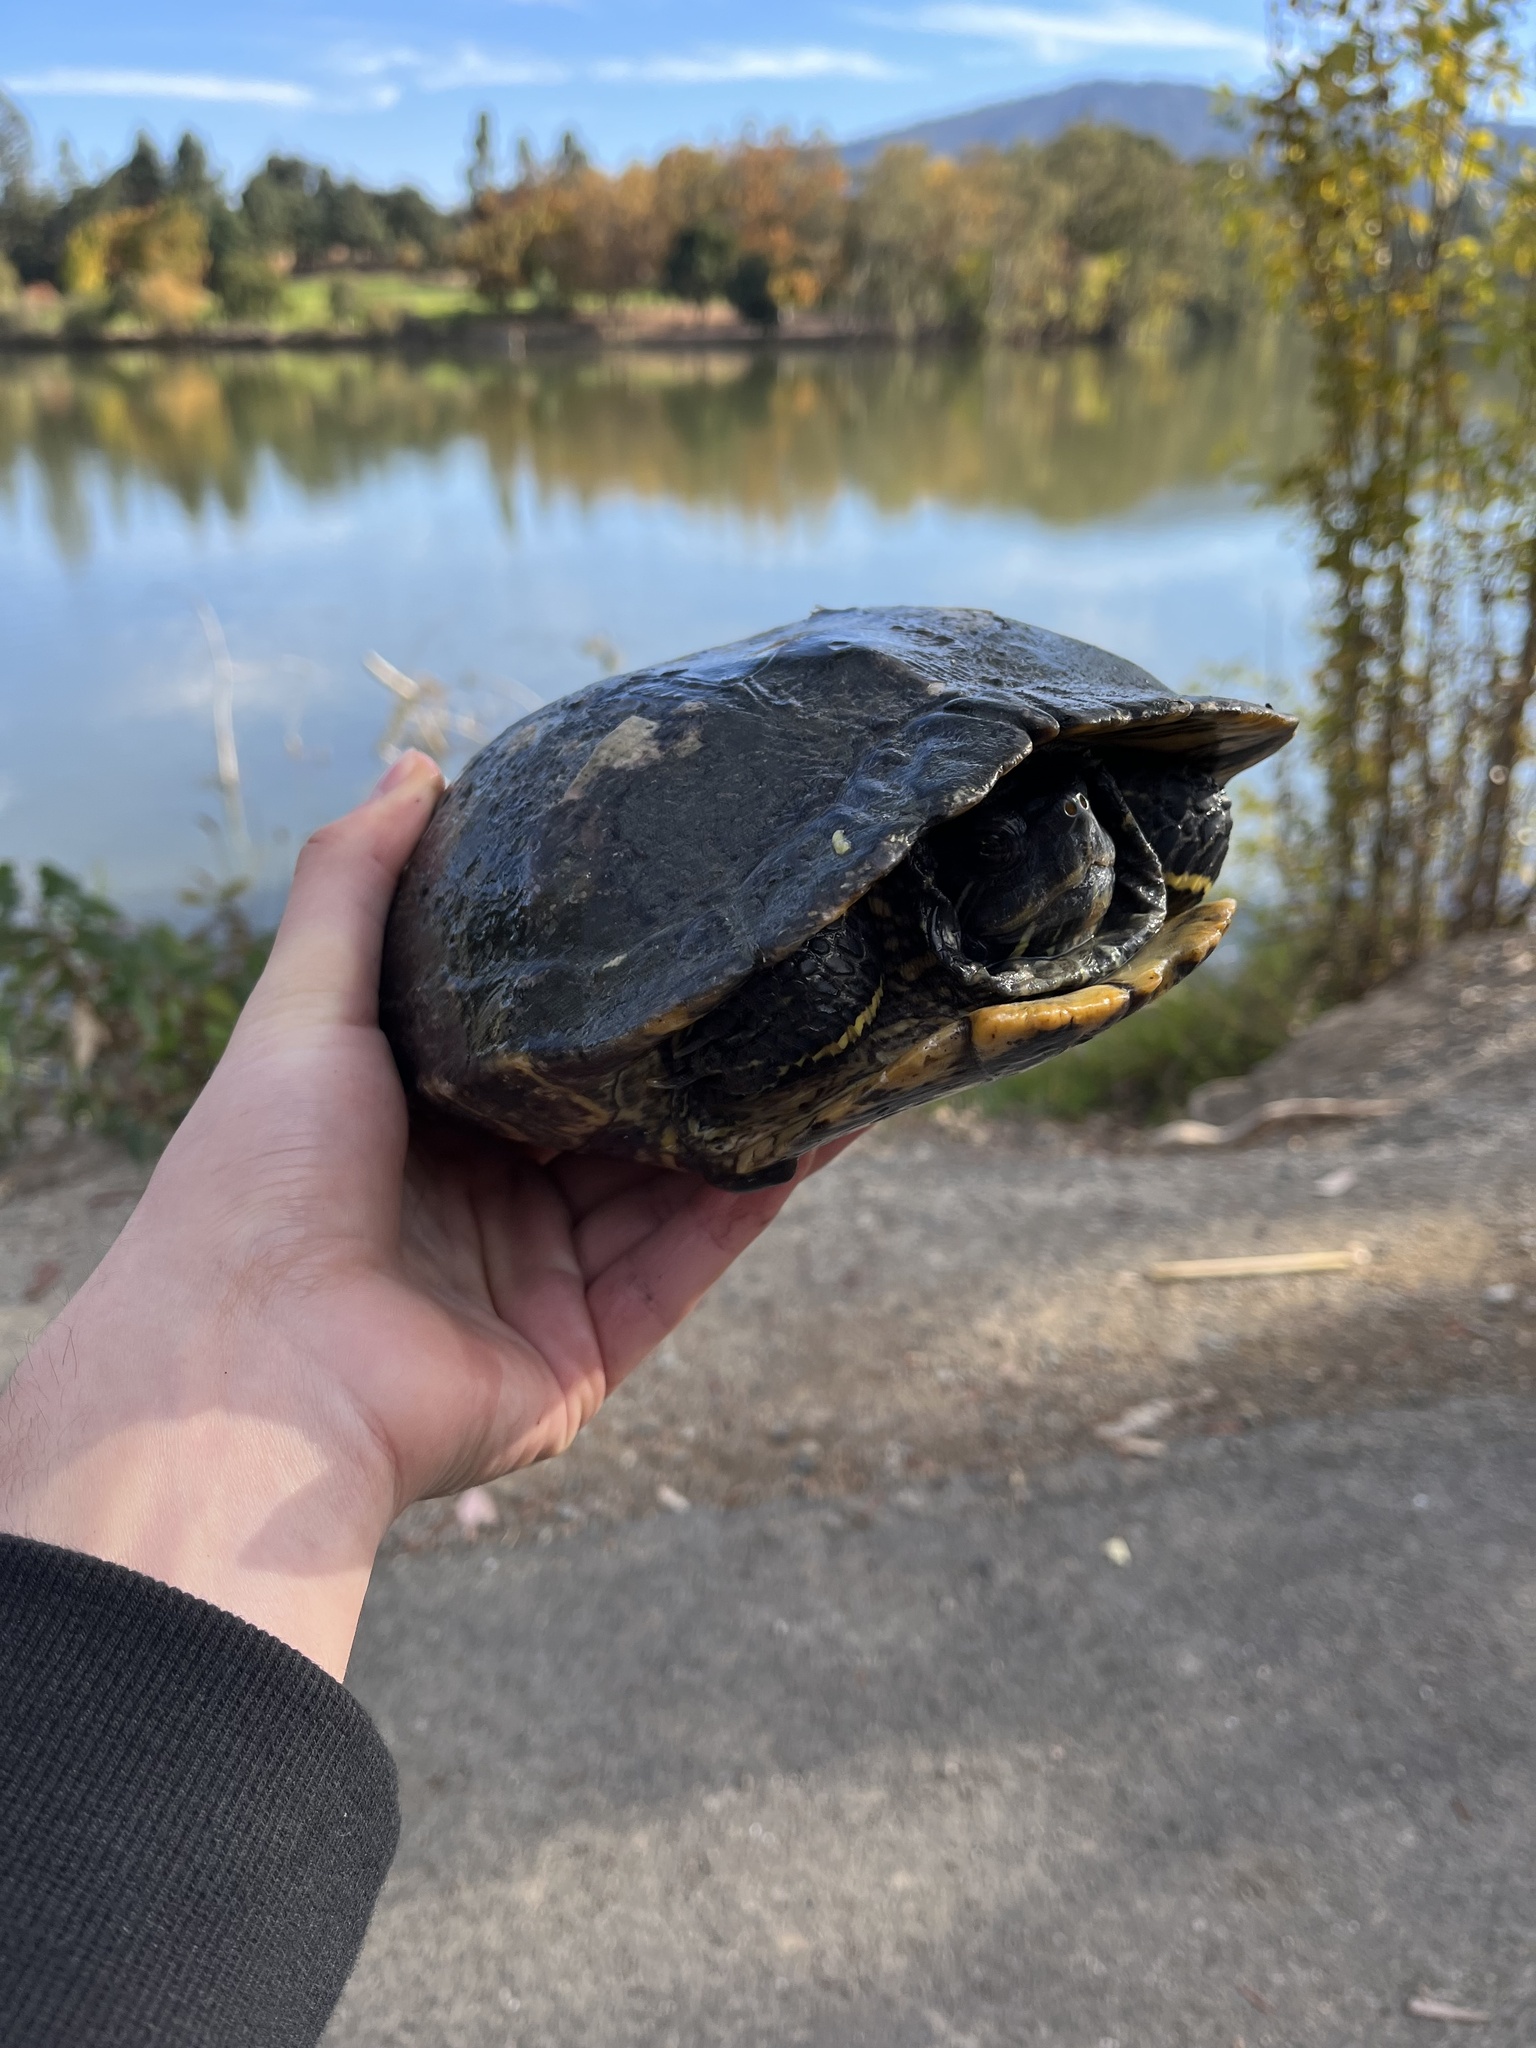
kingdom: Animalia
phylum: Chordata
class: Testudines
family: Emydidae
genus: Trachemys
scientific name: Trachemys scripta
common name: Slider
